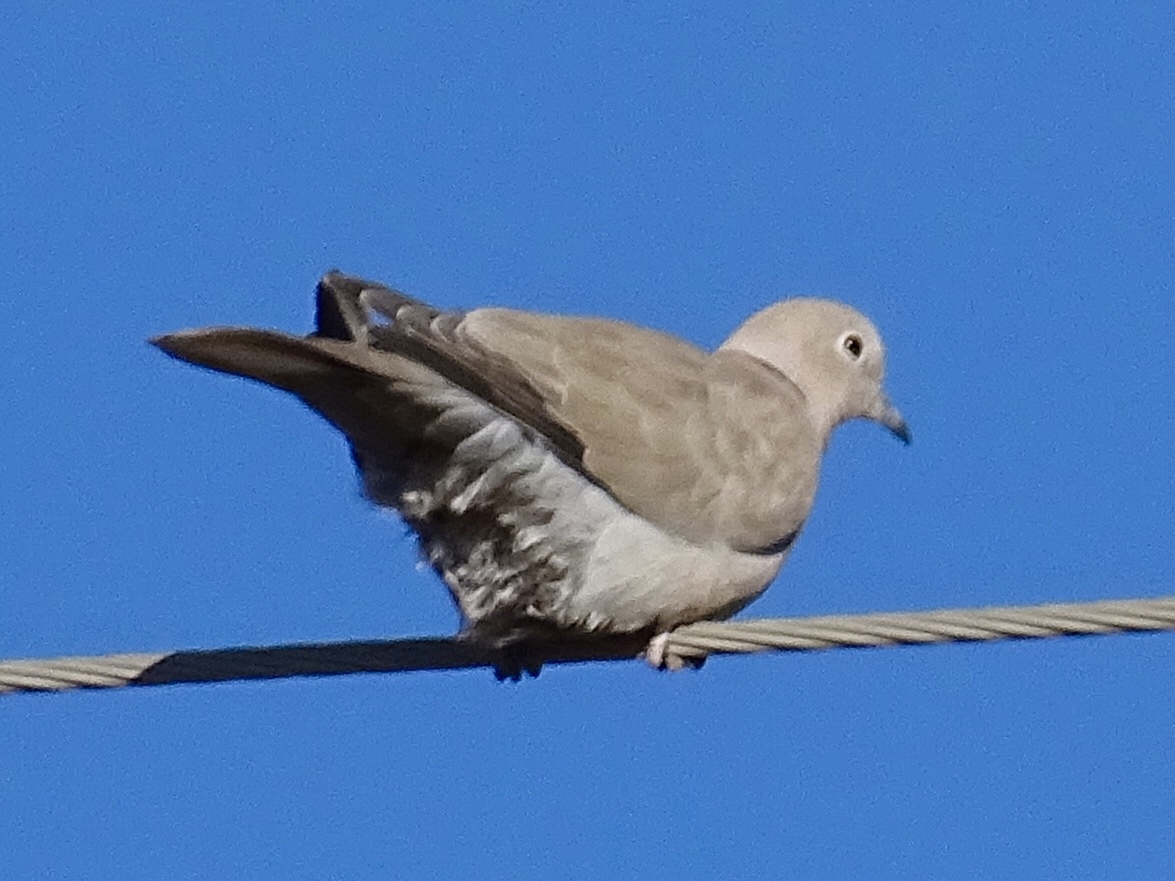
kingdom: Animalia
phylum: Chordata
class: Aves
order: Columbiformes
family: Columbidae
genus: Streptopelia
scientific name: Streptopelia decaocto
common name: Eurasian collared dove
